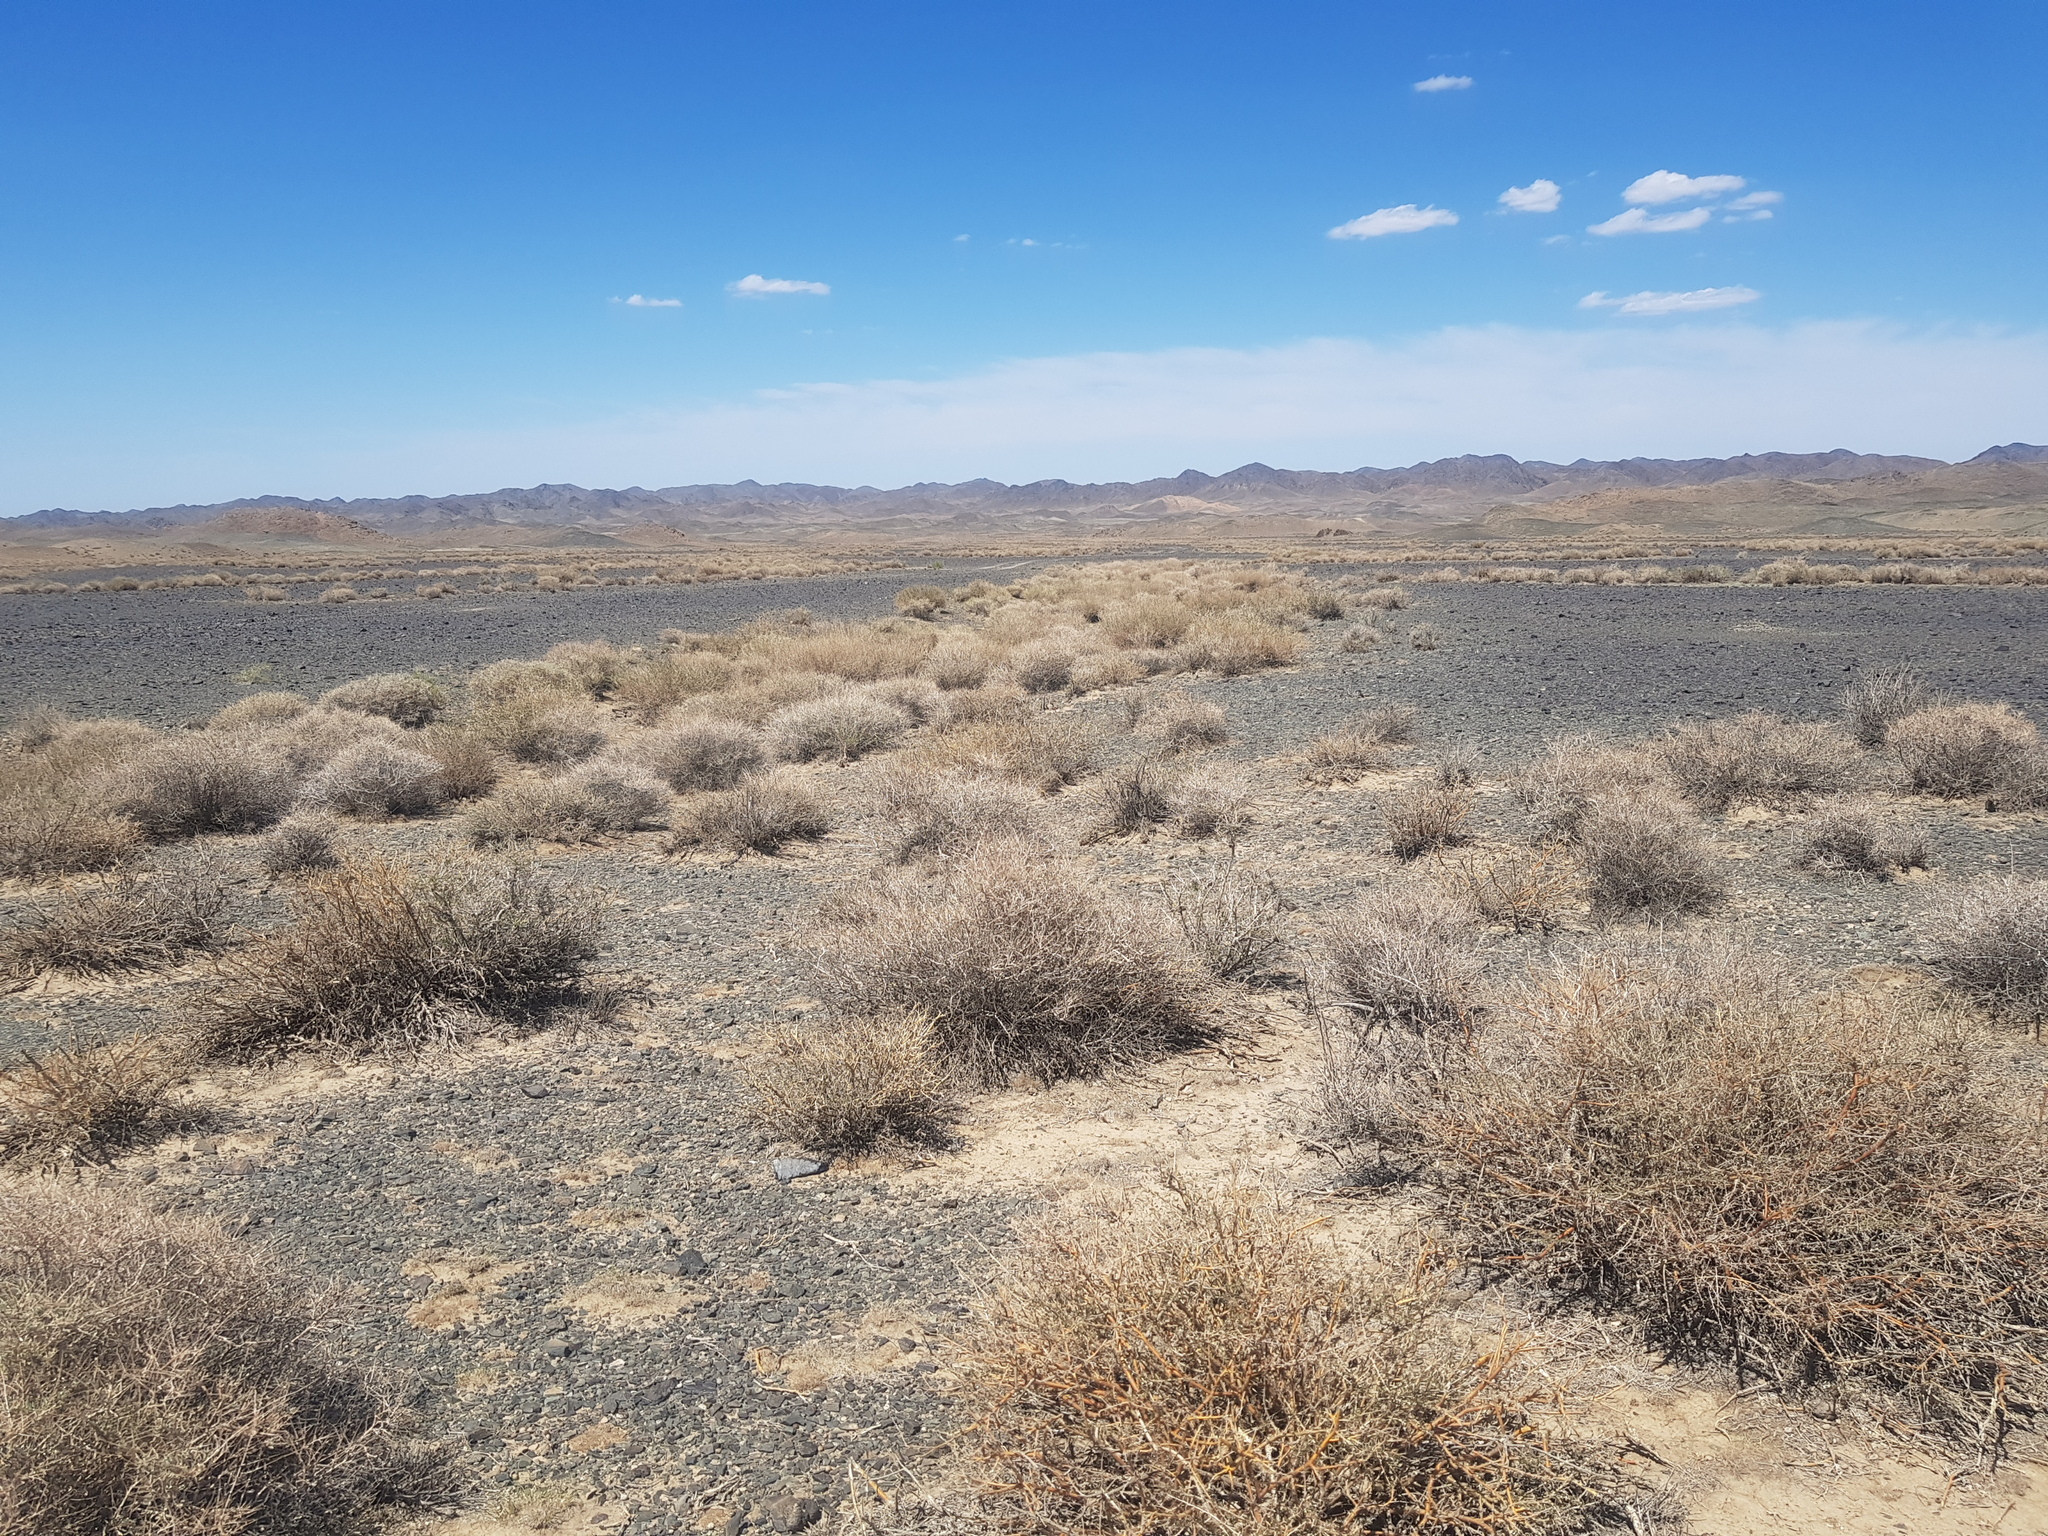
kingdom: Plantae
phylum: Tracheophyta
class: Magnoliopsida
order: Fabales
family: Fabaceae
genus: Caragana
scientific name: Caragana leucophloea
